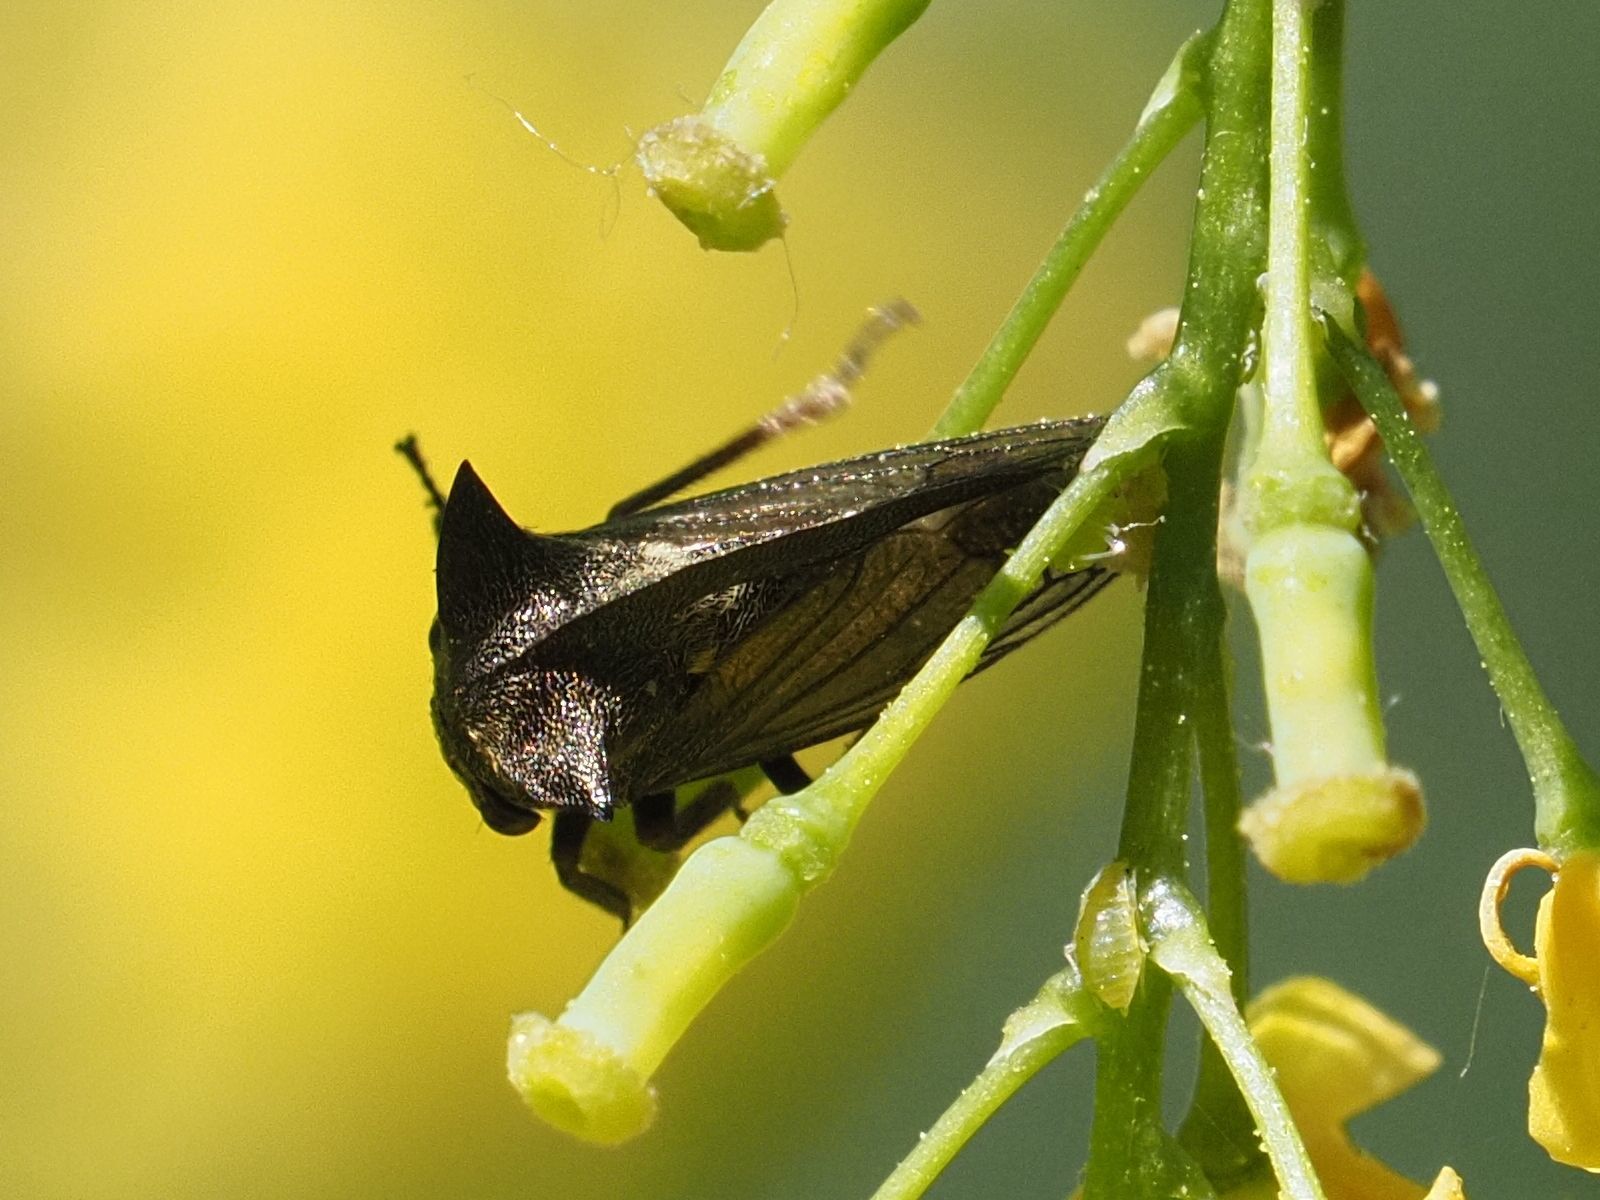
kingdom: Animalia
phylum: Arthropoda
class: Insecta
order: Hemiptera
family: Membracidae
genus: Centrotus
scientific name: Centrotus cornuta
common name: Treehopper
